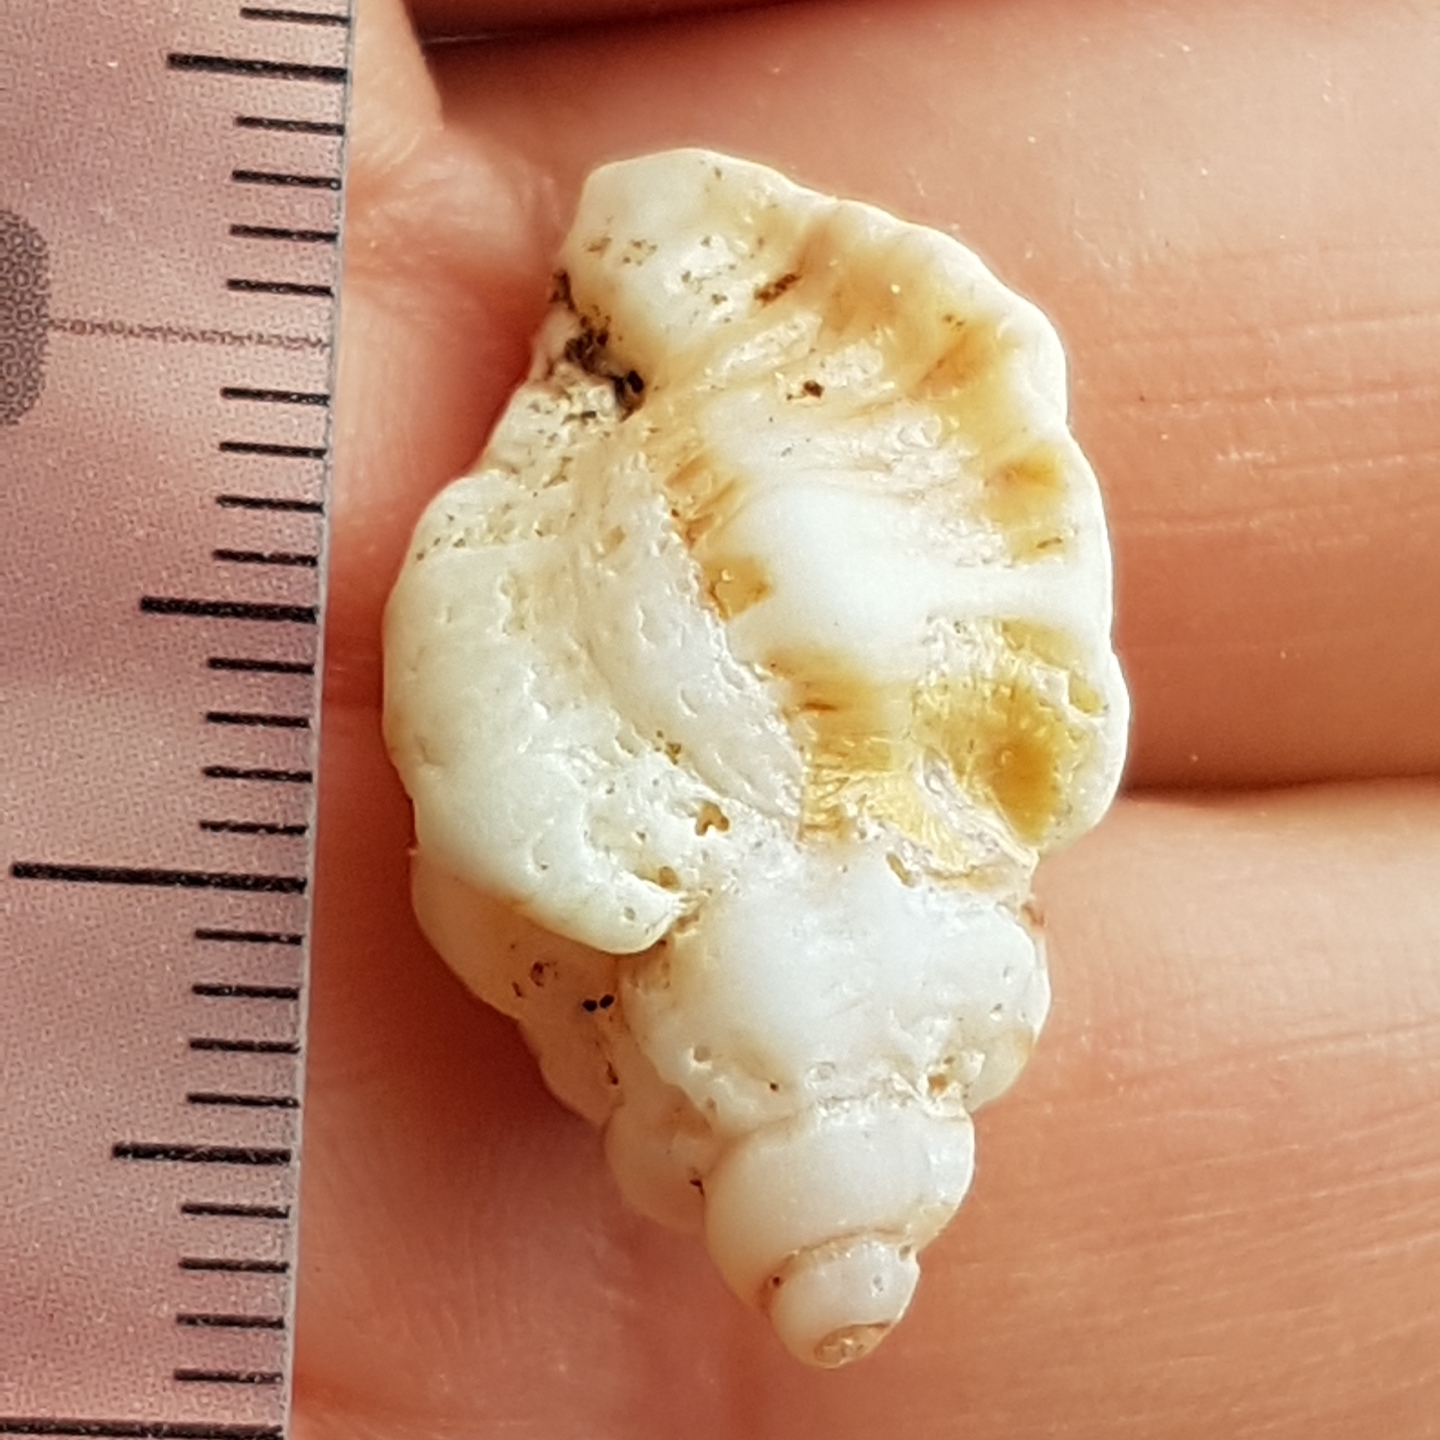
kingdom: Animalia
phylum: Mollusca
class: Gastropoda
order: Neogastropoda
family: Muricidae
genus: Ocenebra
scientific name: Ocenebra erinaceus
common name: European sting winkle
